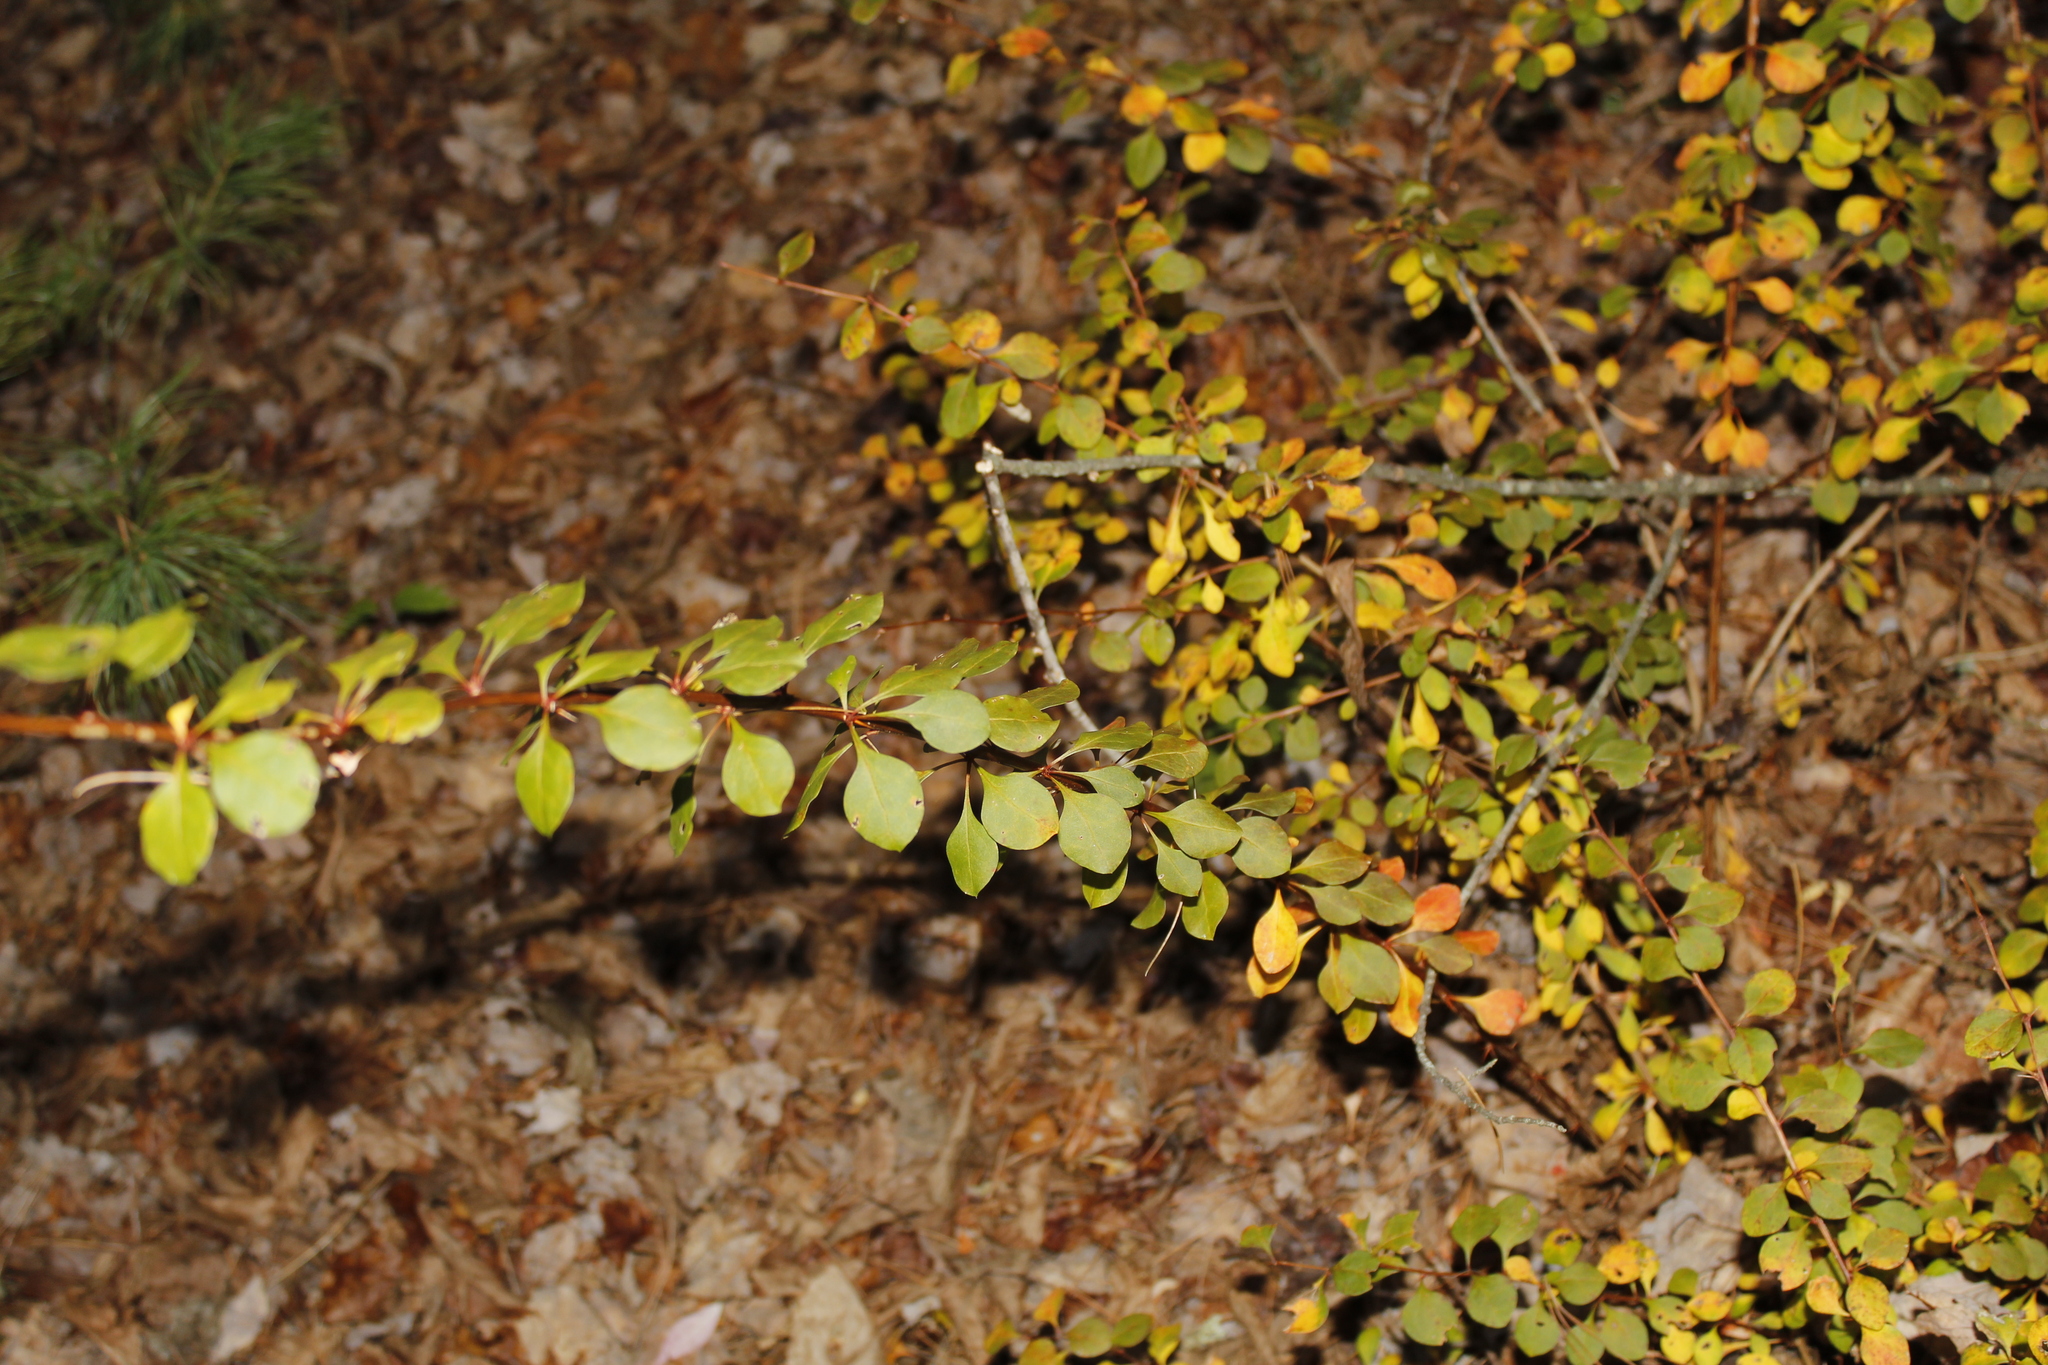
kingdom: Plantae
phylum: Tracheophyta
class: Magnoliopsida
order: Ranunculales
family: Berberidaceae
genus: Berberis
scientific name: Berberis thunbergii
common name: Japanese barberry
